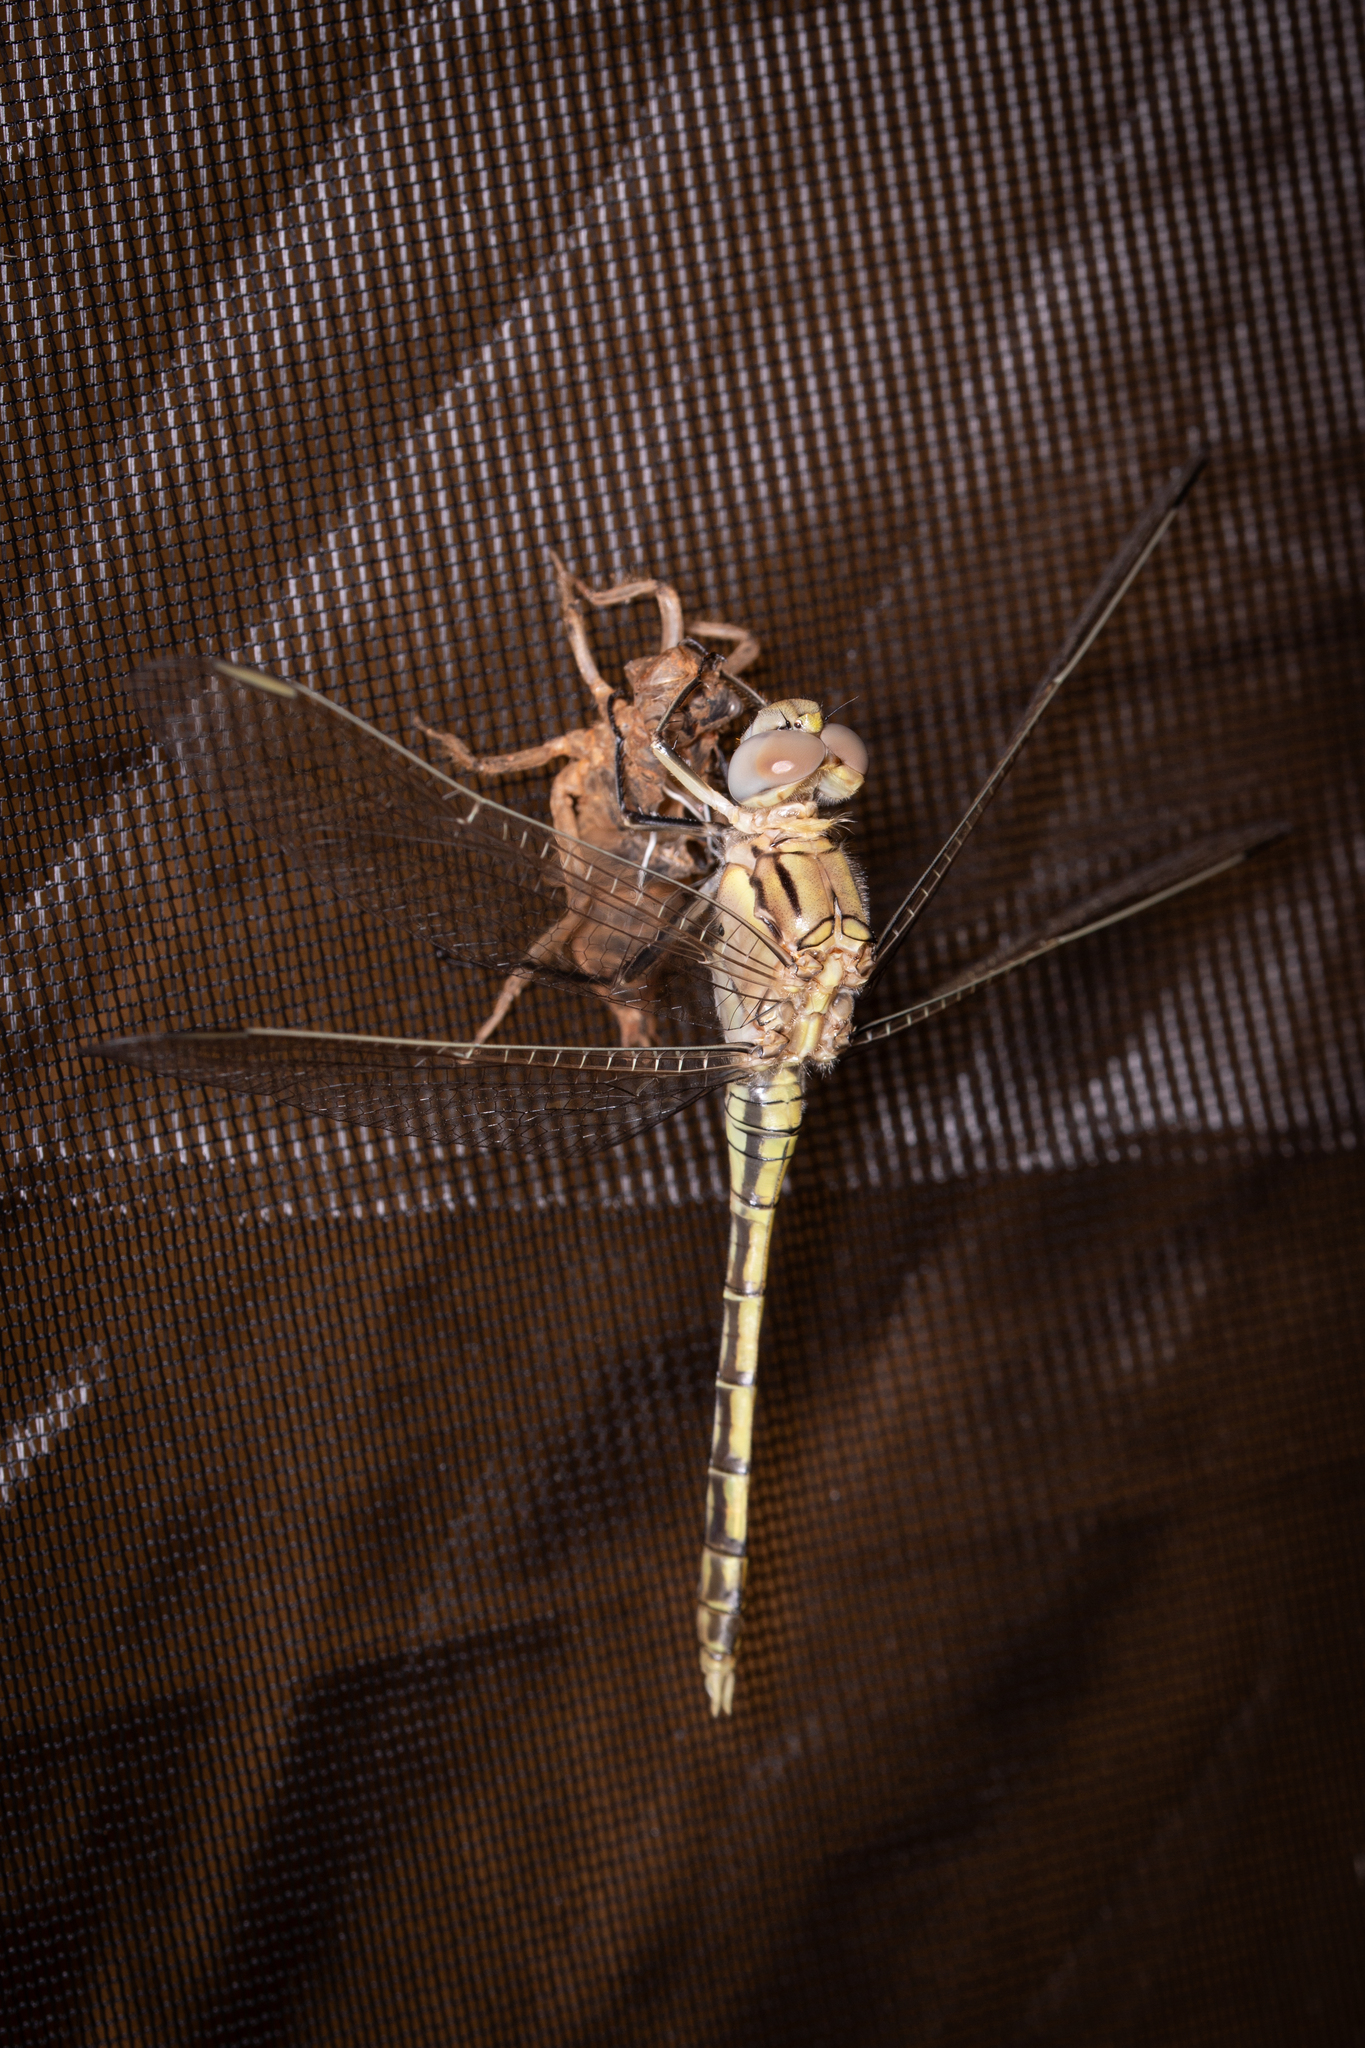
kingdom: Animalia
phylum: Arthropoda
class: Insecta
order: Odonata
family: Libellulidae
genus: Orthetrum
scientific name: Orthetrum caledonicum
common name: Blue skimmer
